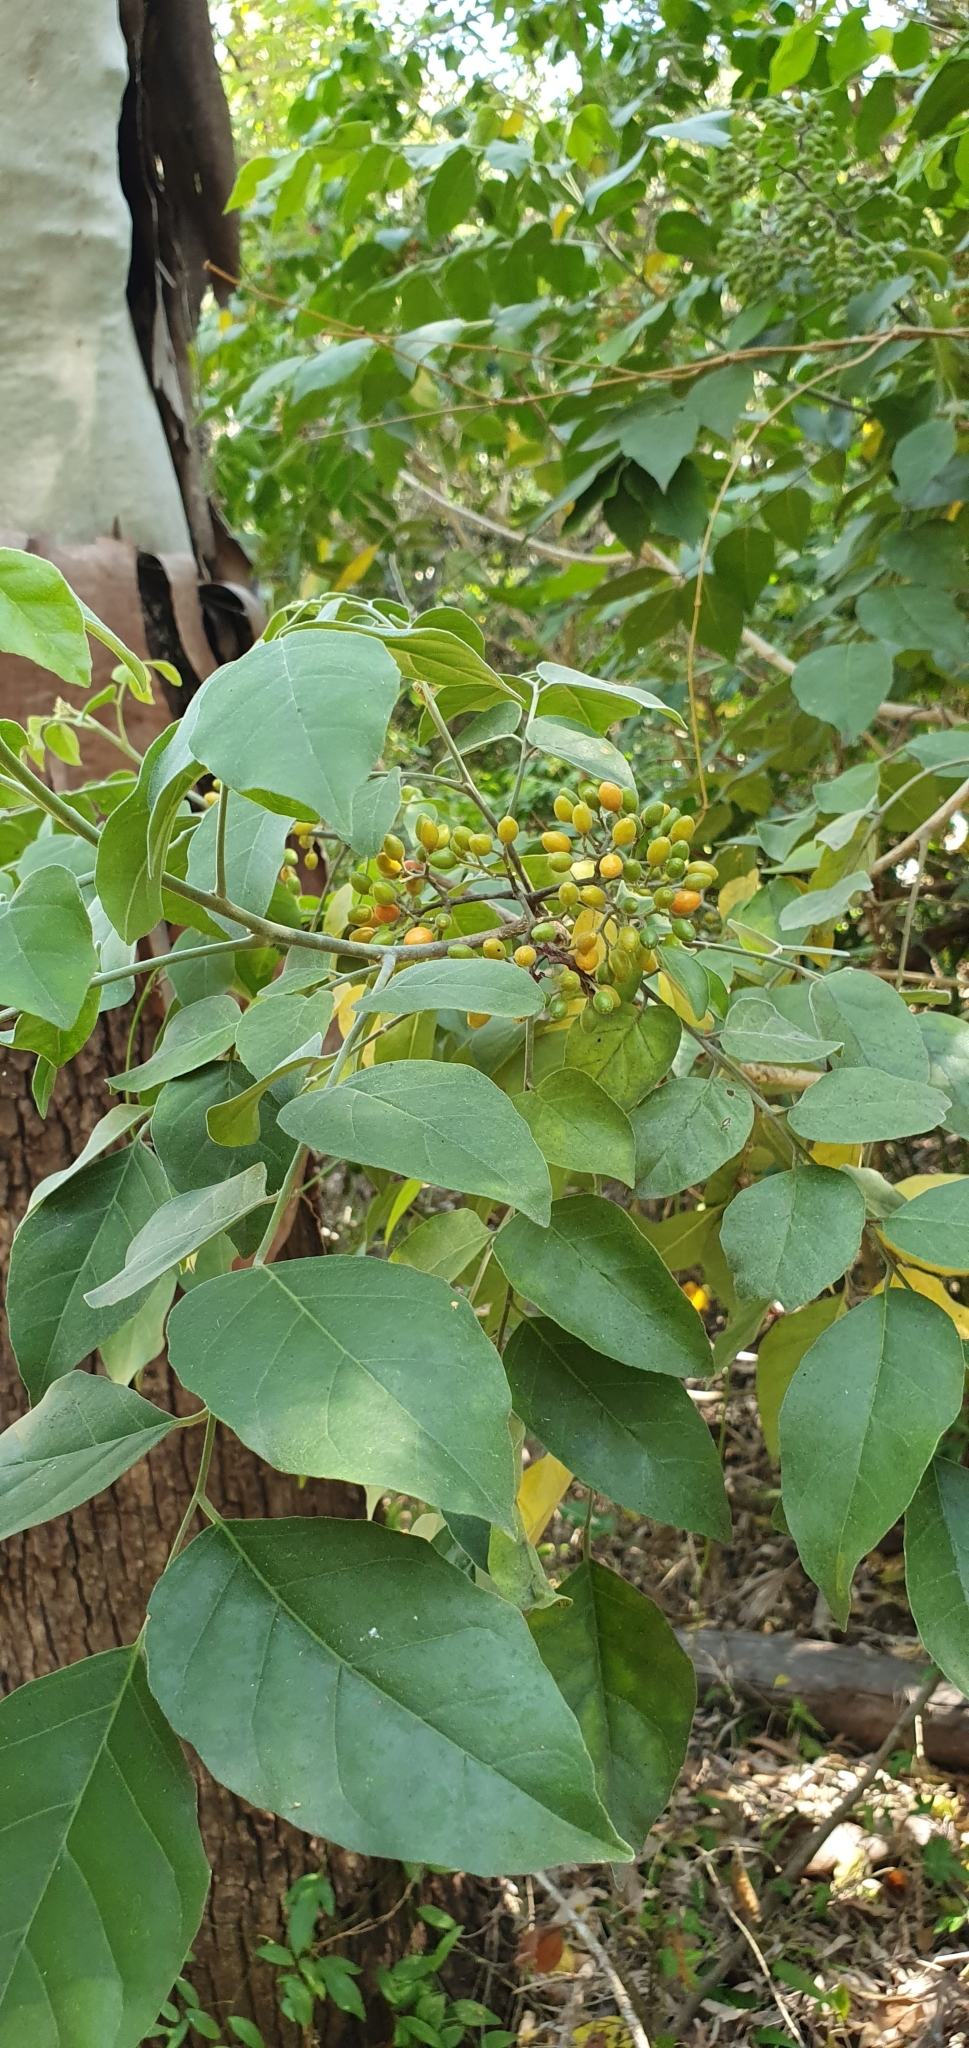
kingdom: Plantae
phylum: Tracheophyta
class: Magnoliopsida
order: Sapindales
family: Rutaceae
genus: Micromelum
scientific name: Micromelum minutum
